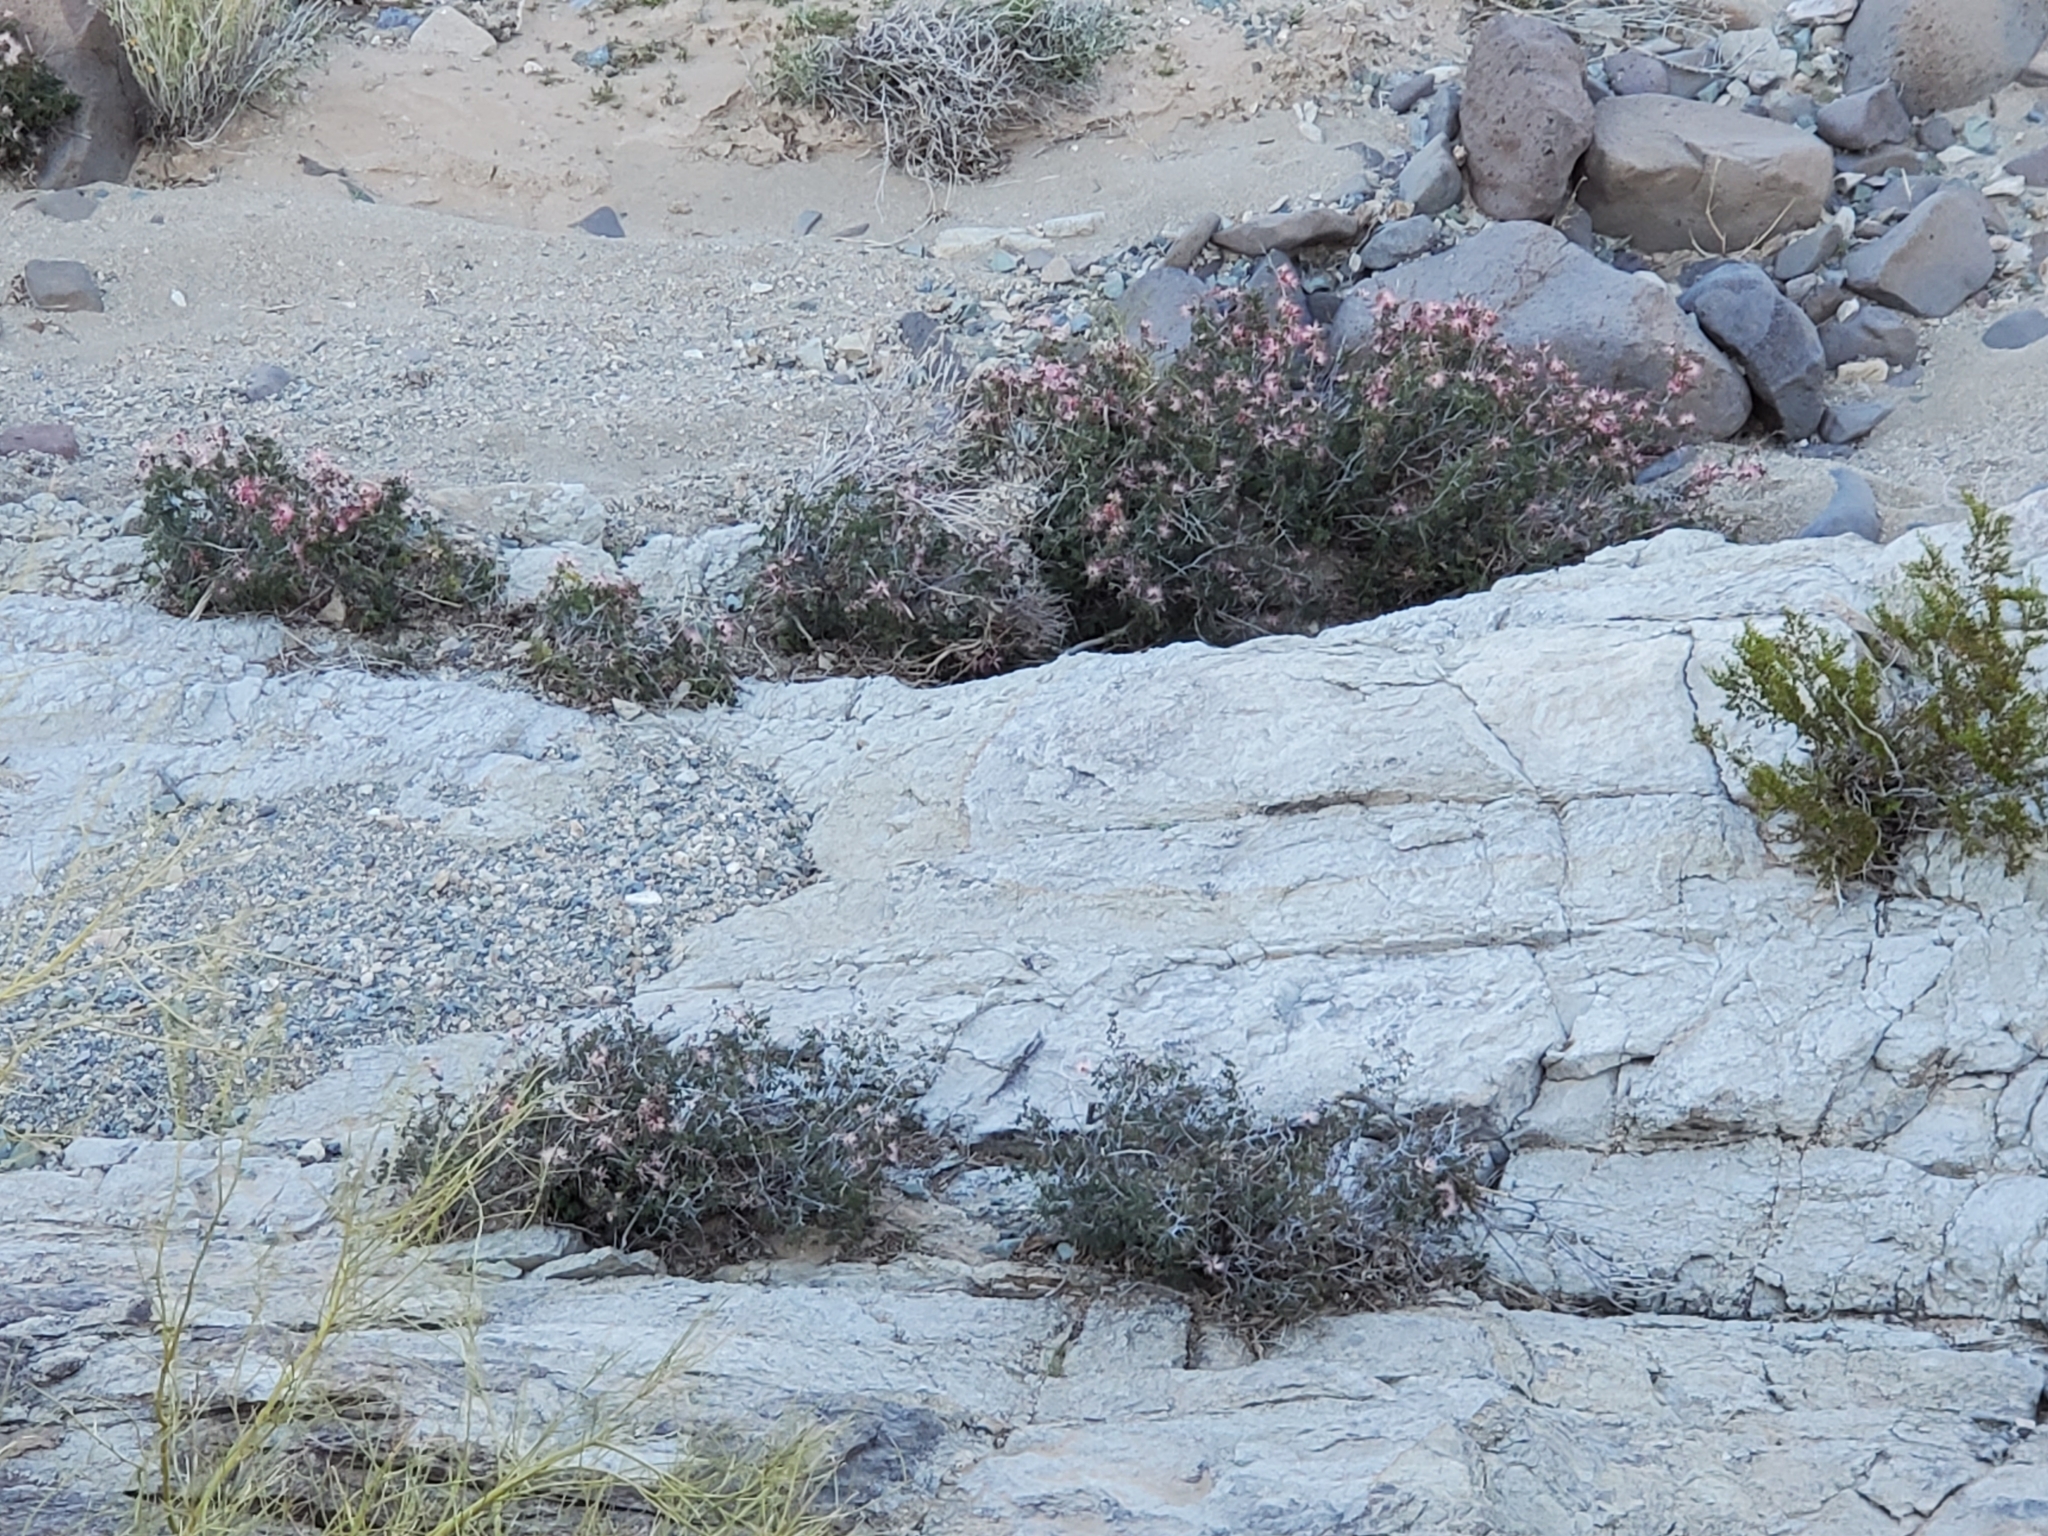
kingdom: Plantae
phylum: Tracheophyta
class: Magnoliopsida
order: Fabales
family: Fabaceae
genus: Calliandra
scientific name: Calliandra eriophylla
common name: Fairy-duster
